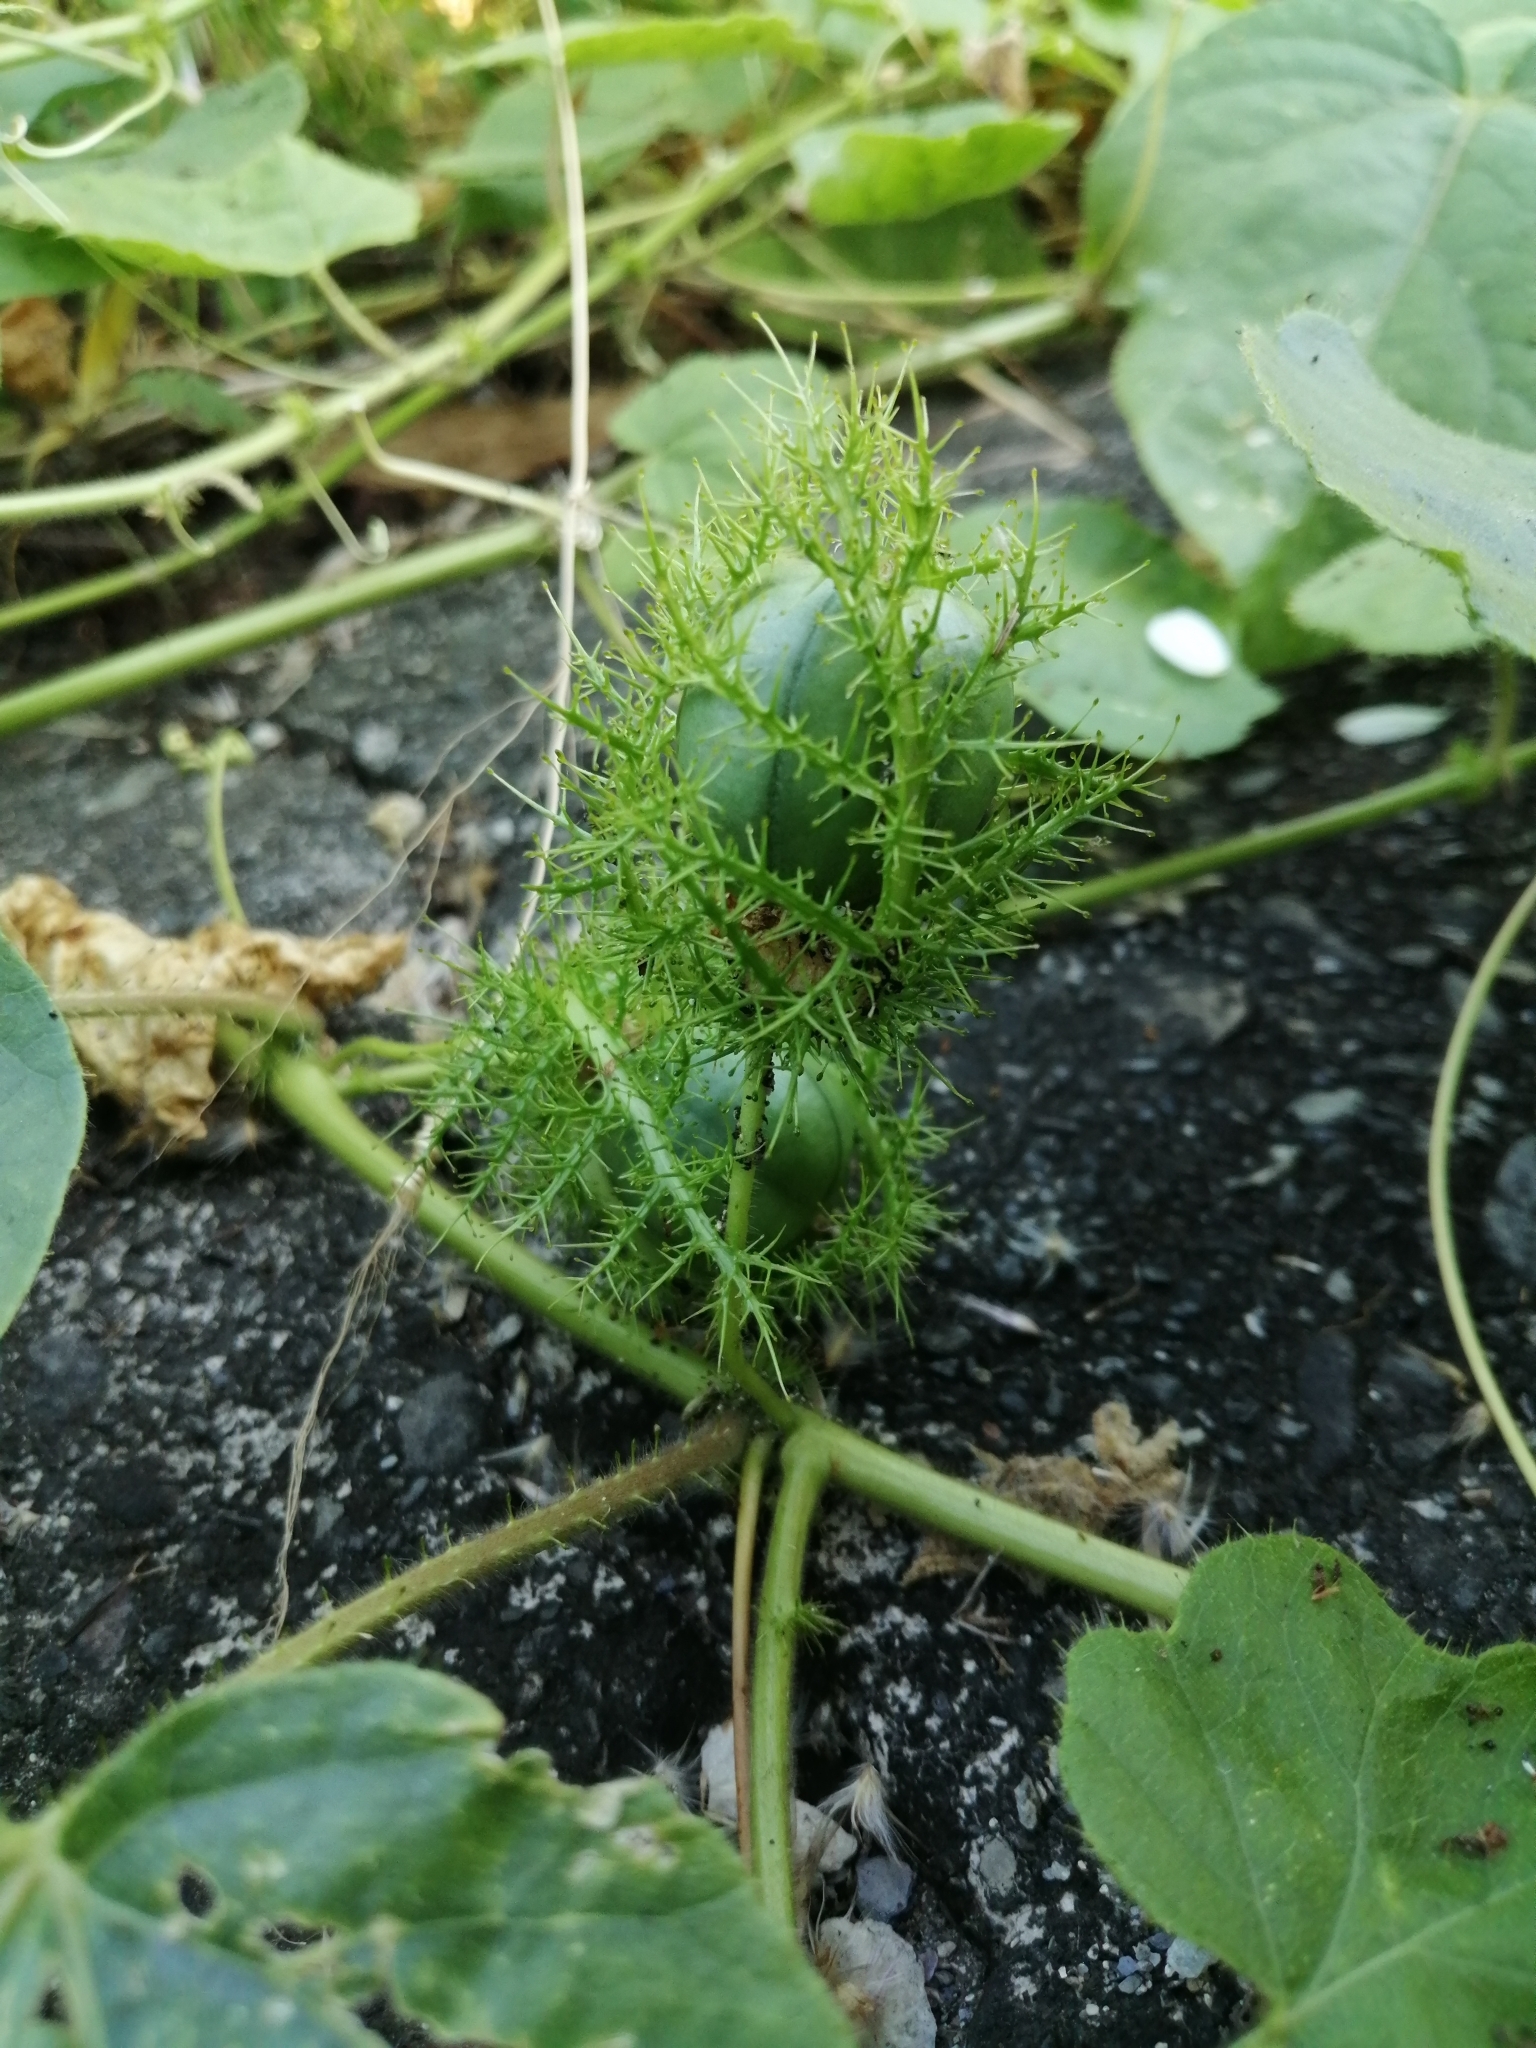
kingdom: Plantae
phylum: Tracheophyta
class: Magnoliopsida
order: Malpighiales
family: Passifloraceae
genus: Passiflora
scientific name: Passiflora vesicaria
